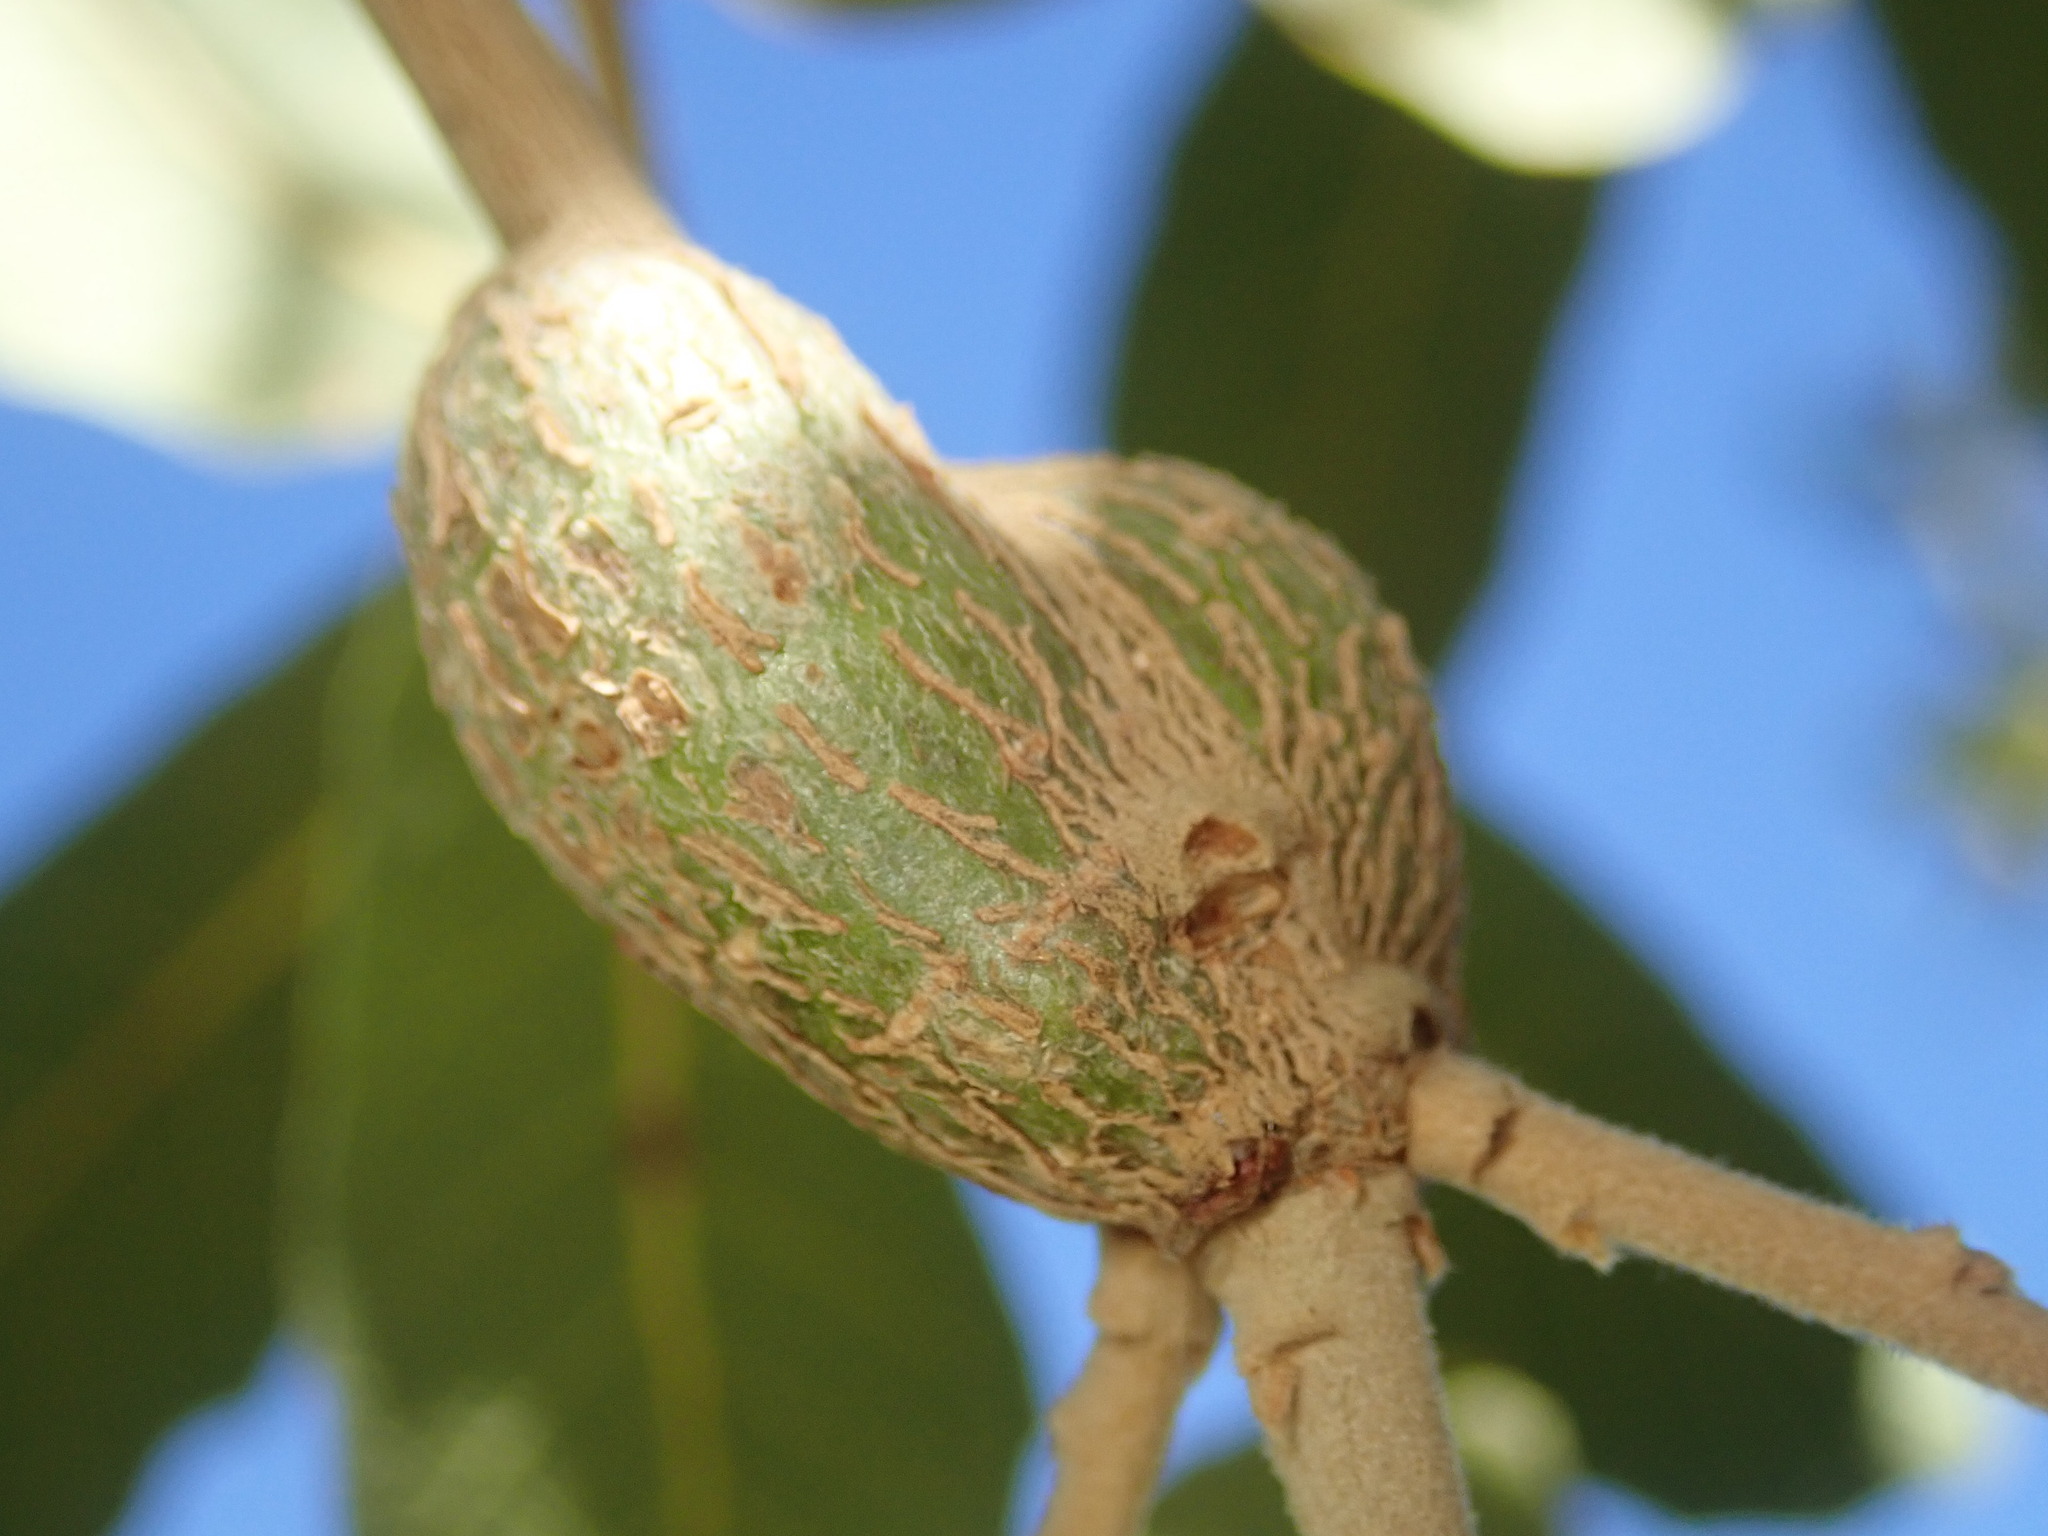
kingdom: Animalia
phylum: Arthropoda
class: Insecta
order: Hymenoptera
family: Cynipidae
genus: Andricus
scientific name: Andricus
